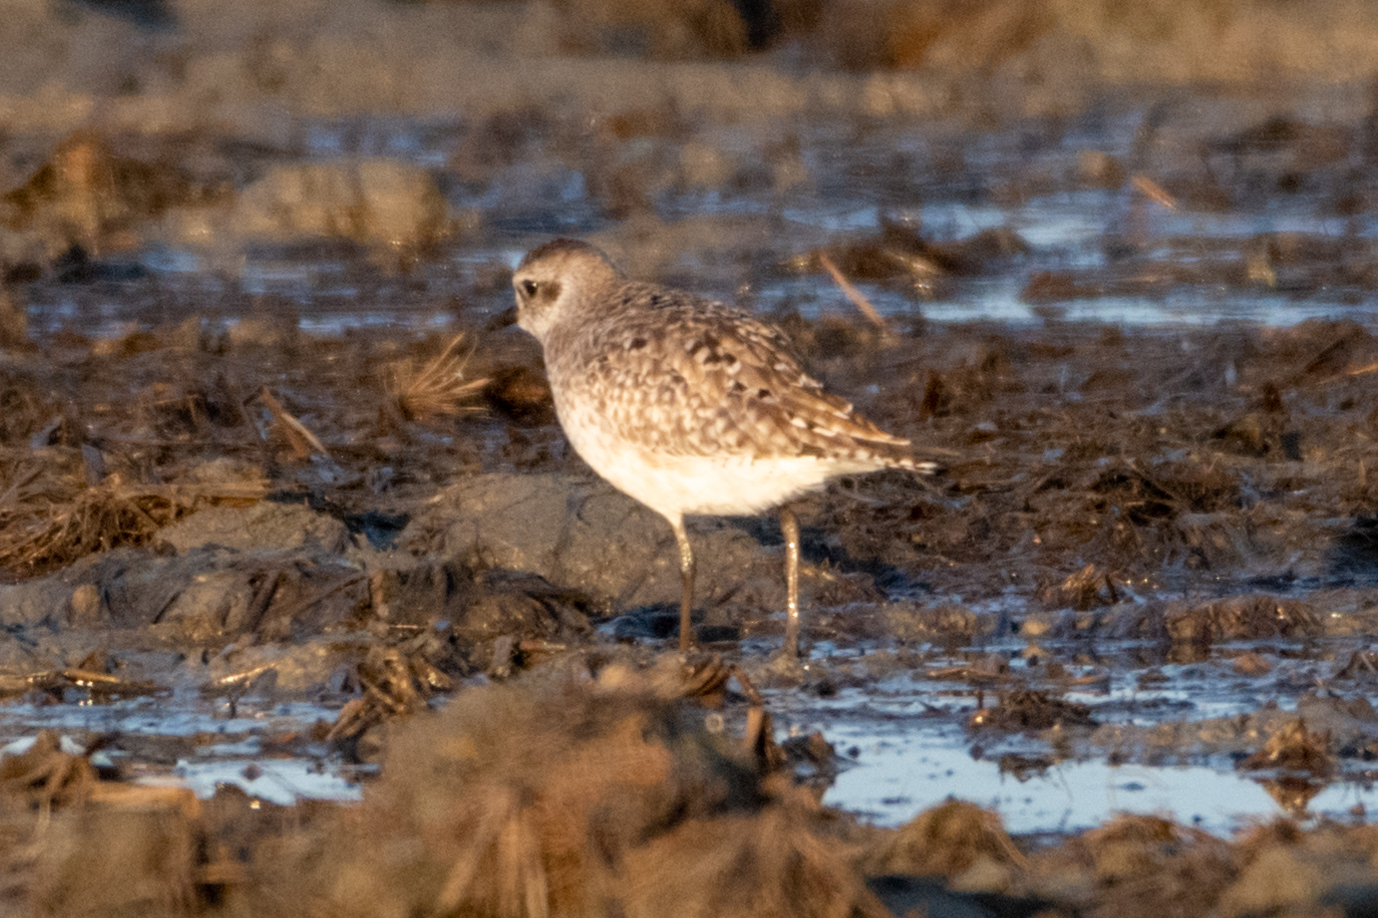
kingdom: Animalia
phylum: Chordata
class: Aves
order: Charadriiformes
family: Charadriidae
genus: Pluvialis
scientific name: Pluvialis squatarola
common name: Grey plover
